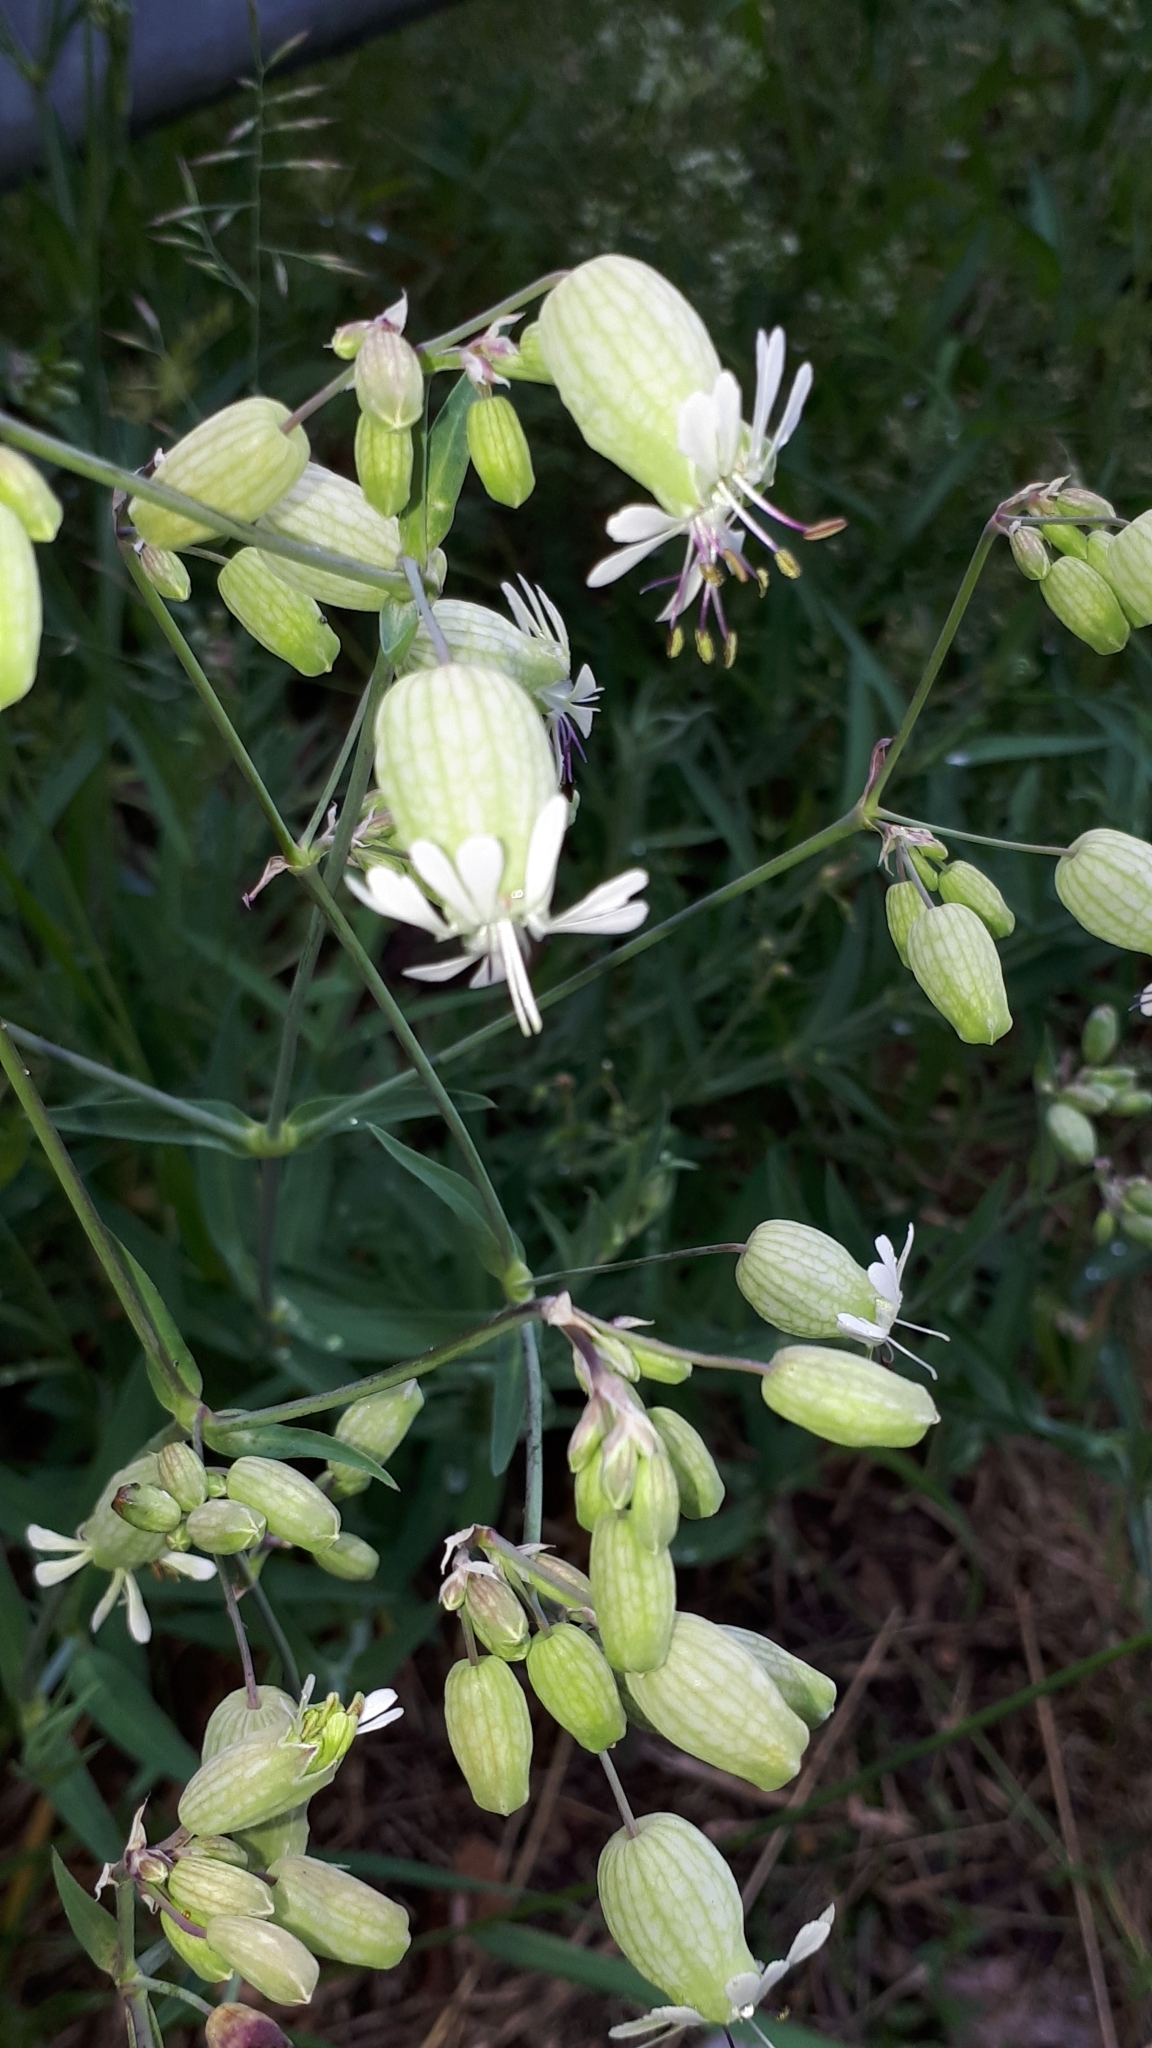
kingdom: Plantae
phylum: Tracheophyta
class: Magnoliopsida
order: Caryophyllales
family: Caryophyllaceae
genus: Silene
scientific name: Silene vulgaris
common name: Bladder campion
